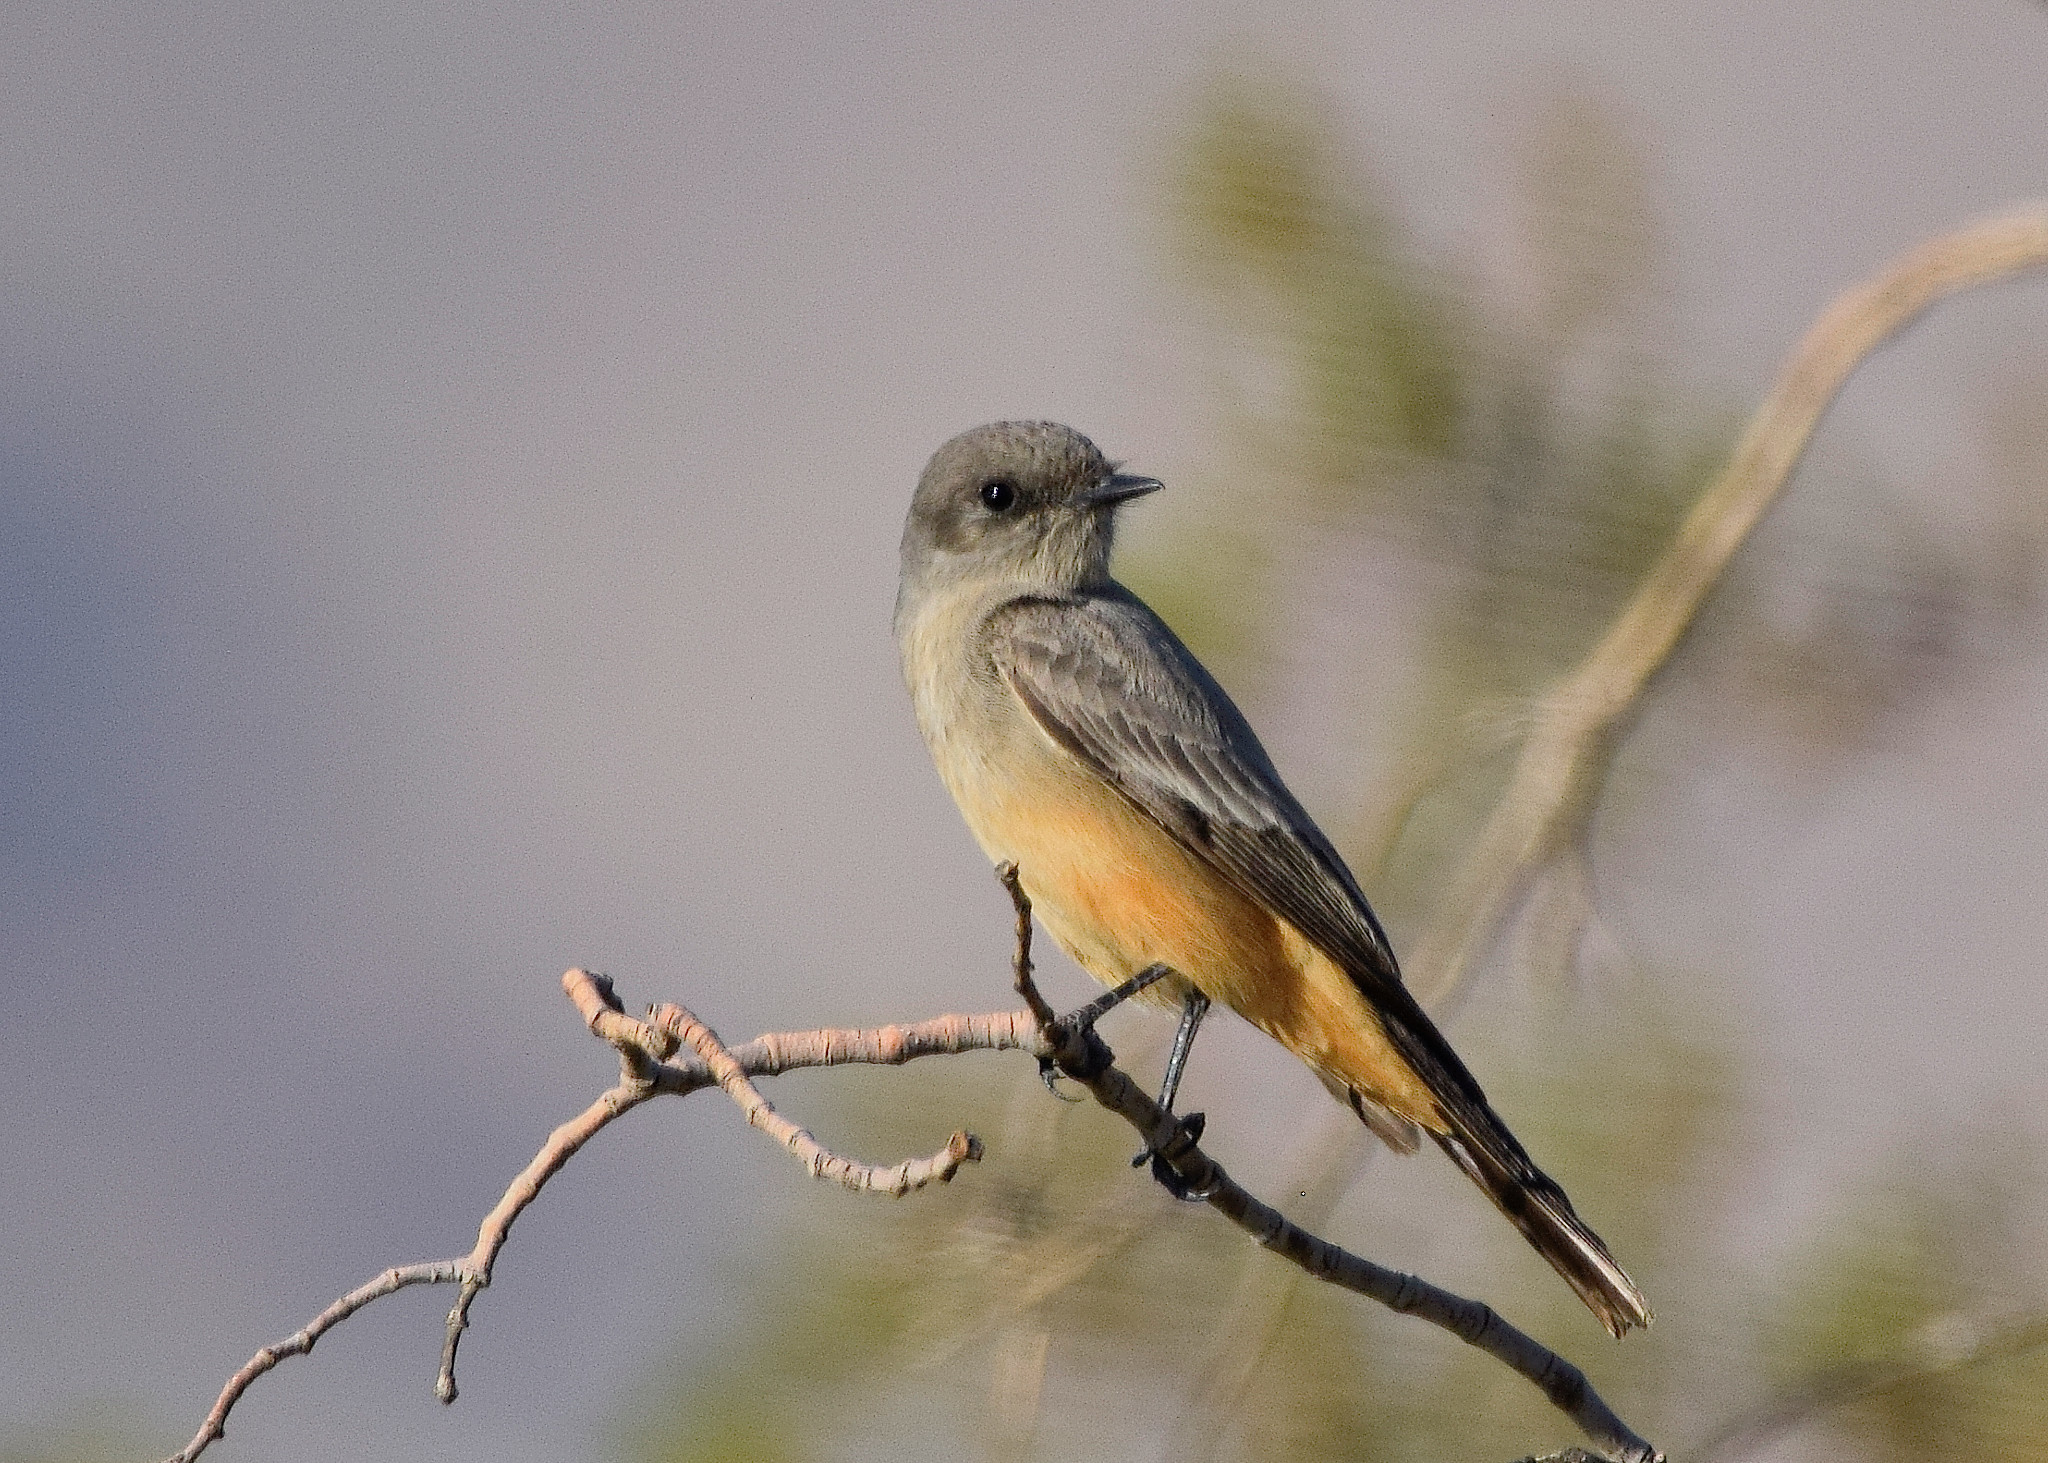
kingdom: Animalia
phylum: Chordata
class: Aves
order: Passeriformes
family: Tyrannidae
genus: Sayornis
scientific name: Sayornis saya
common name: Say's phoebe
